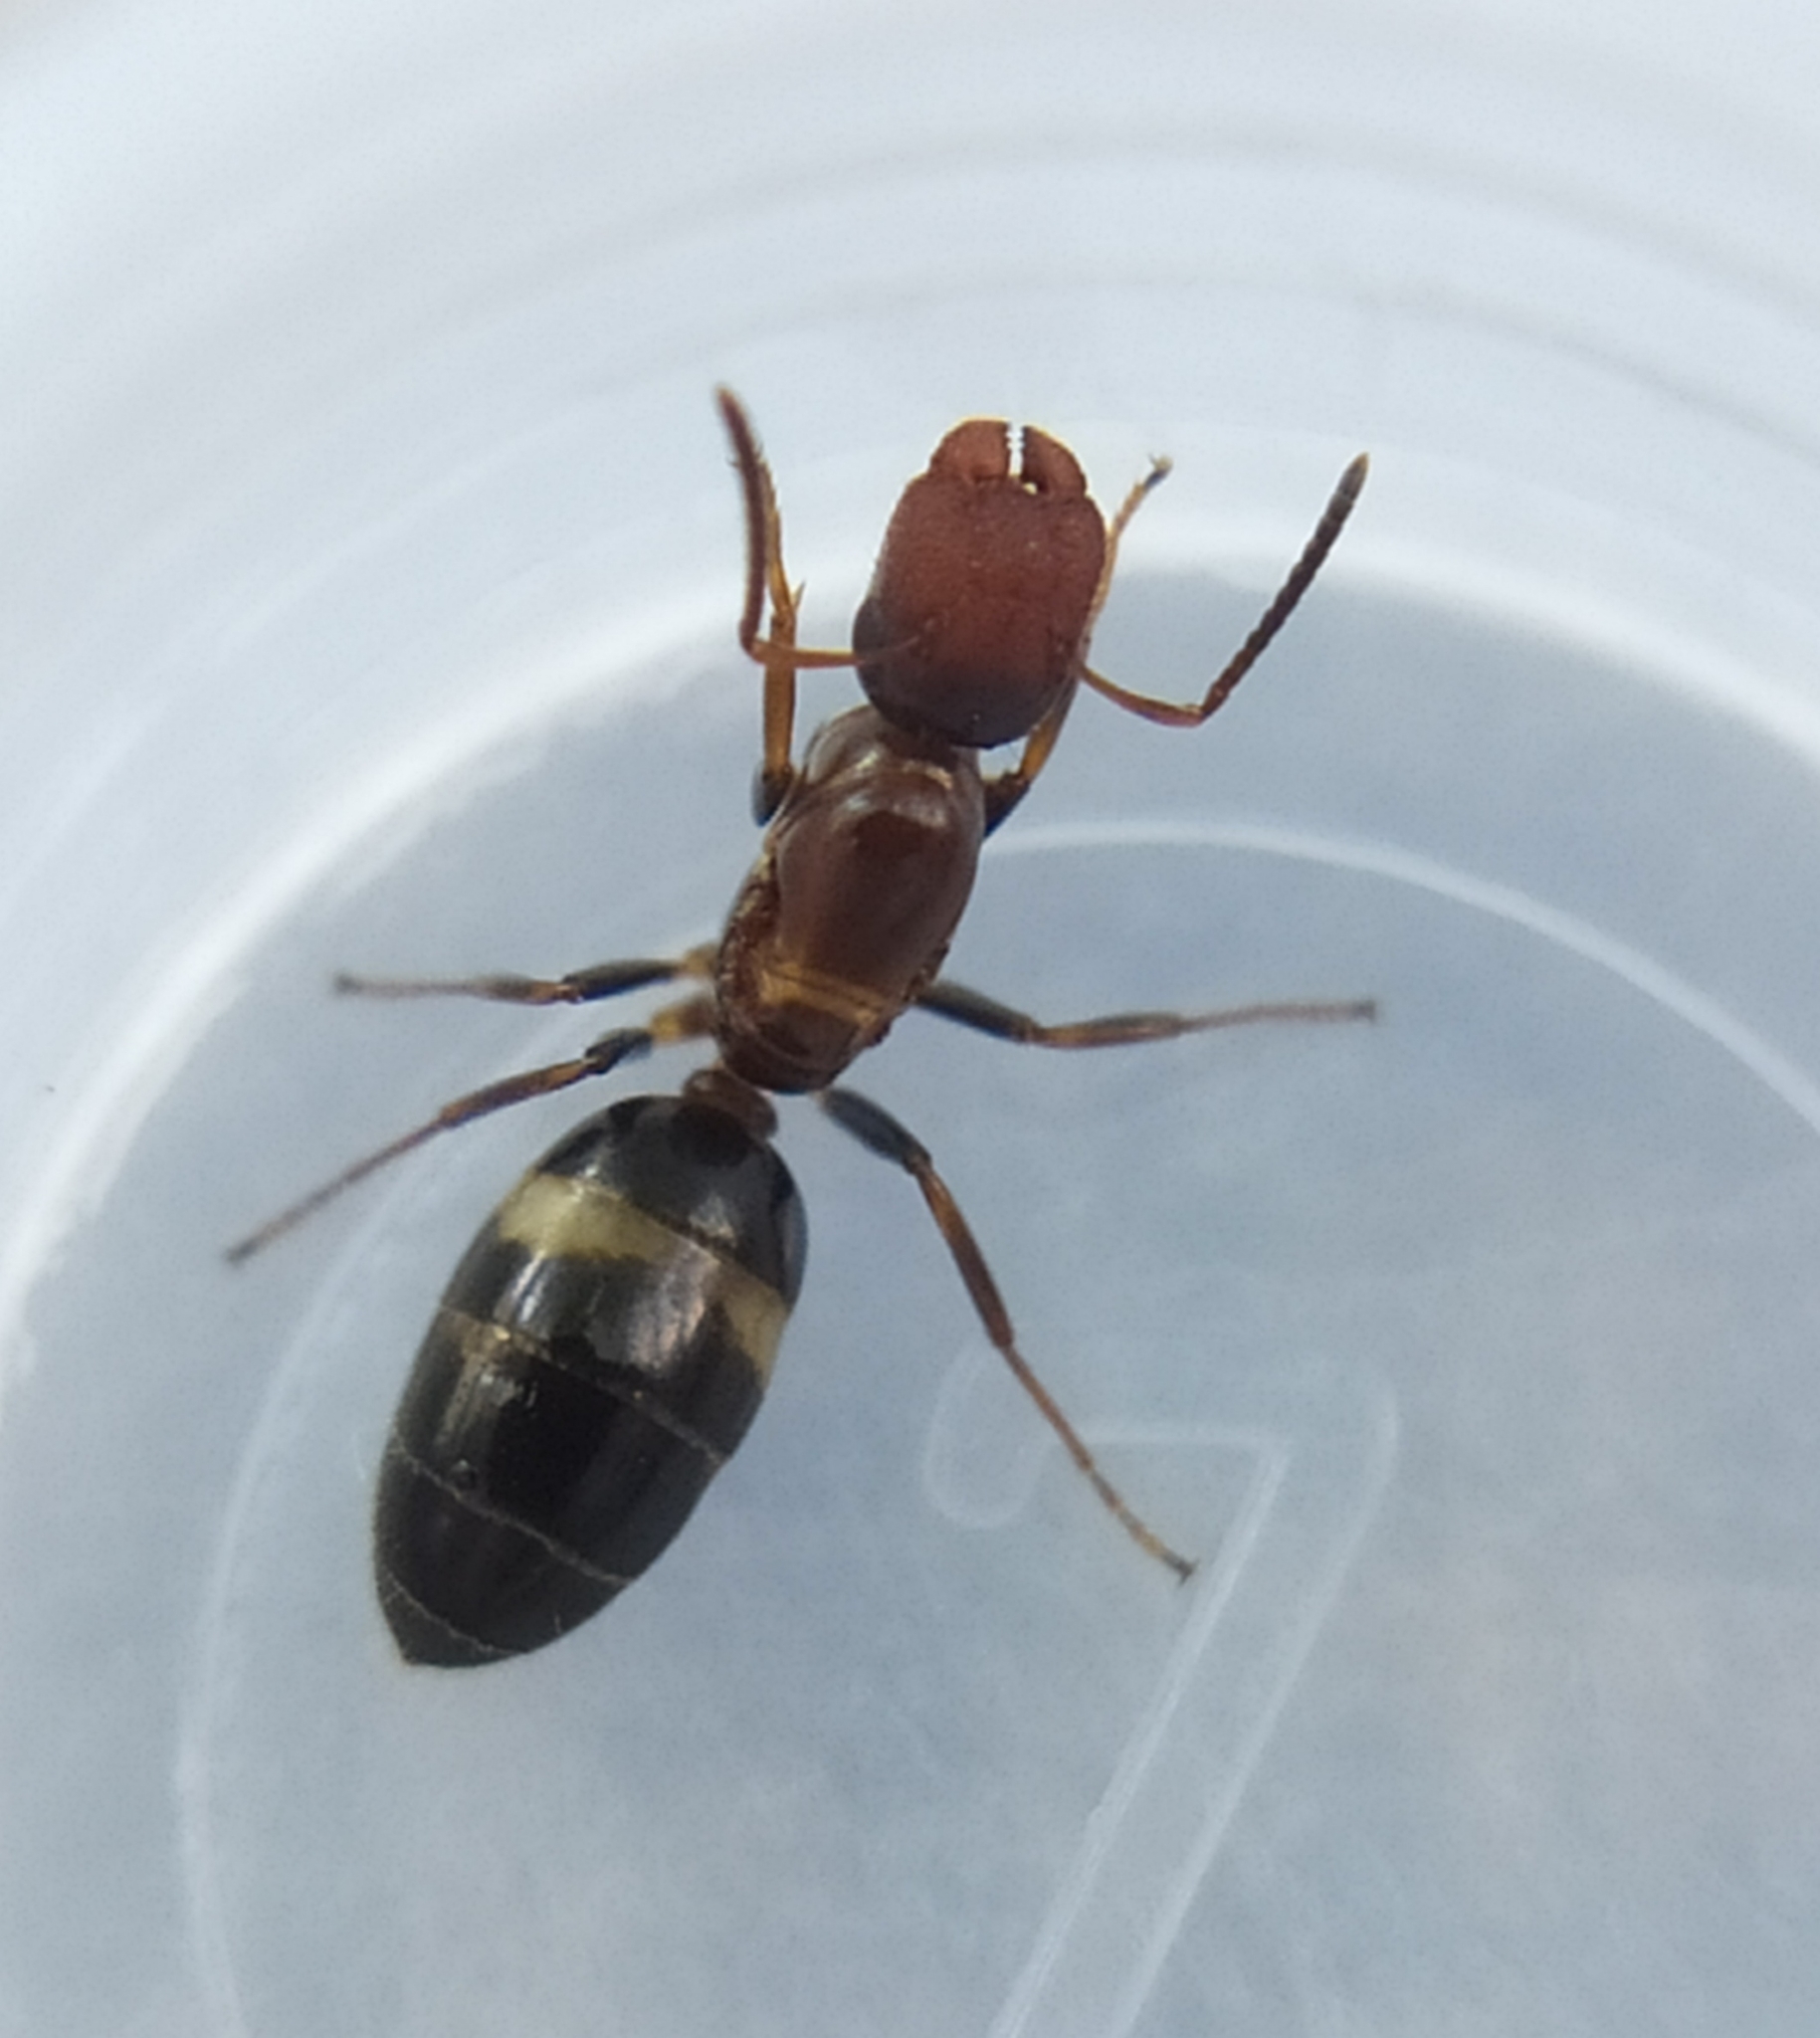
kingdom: Animalia
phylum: Arthropoda
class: Insecta
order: Hymenoptera
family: Formicidae
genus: Camponotus
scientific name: Camponotus truncatus
